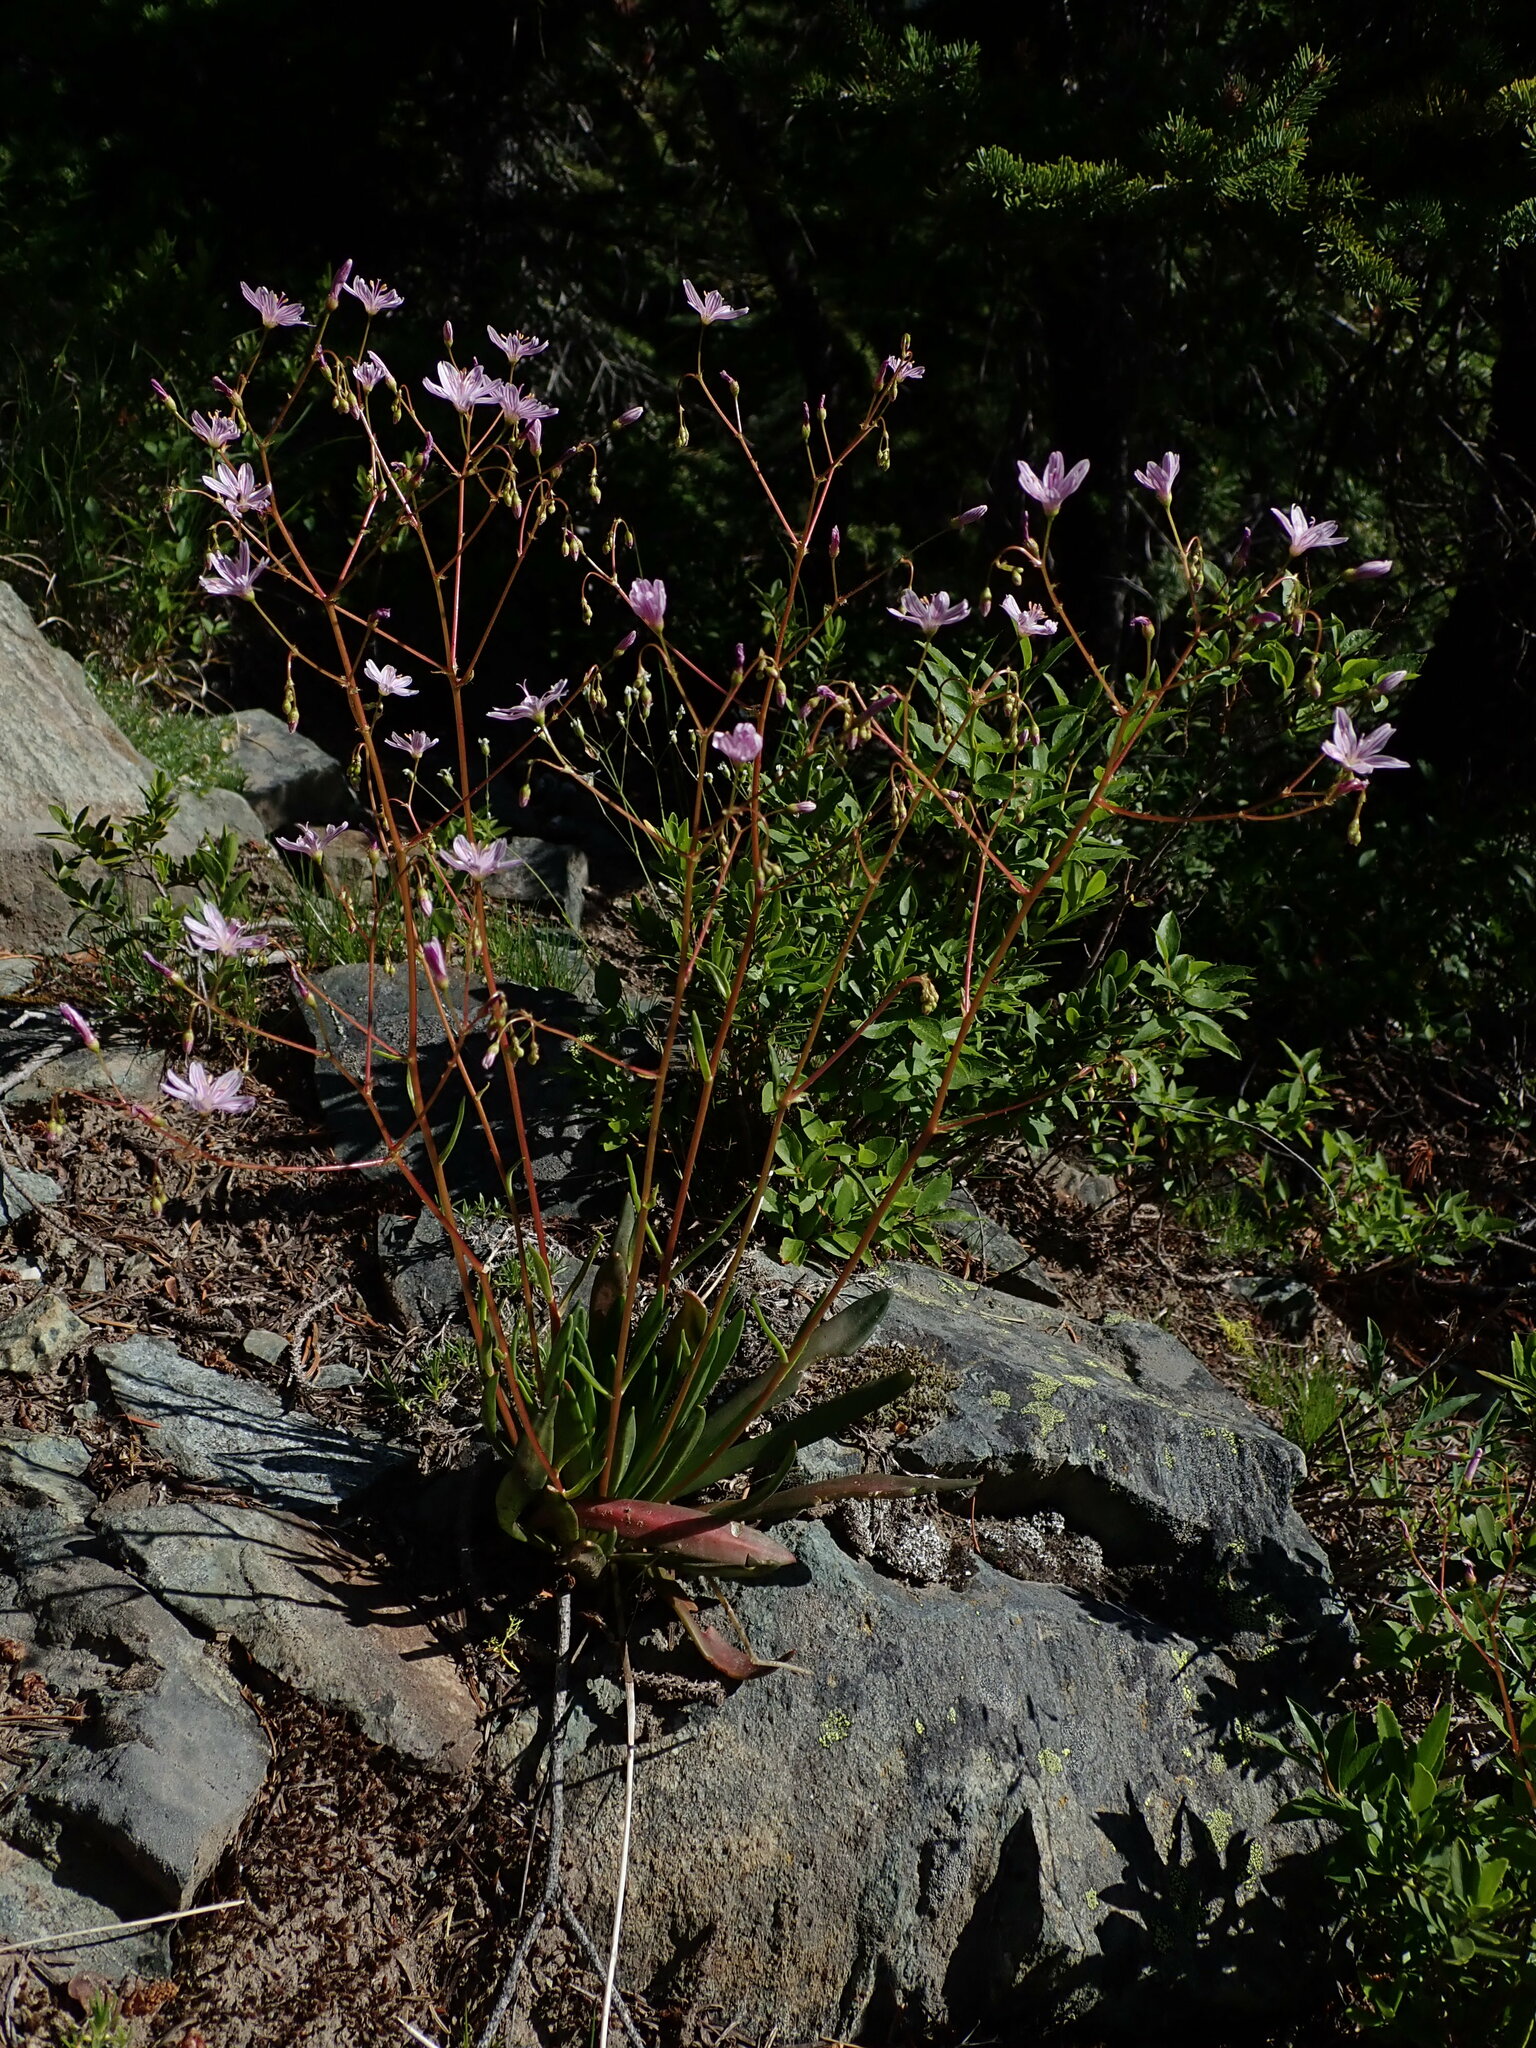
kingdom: Plantae
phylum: Tracheophyta
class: Magnoliopsida
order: Caryophyllales
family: Montiaceae
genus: Lewisia
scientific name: Lewisia columbiana
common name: Columbia lewisia
